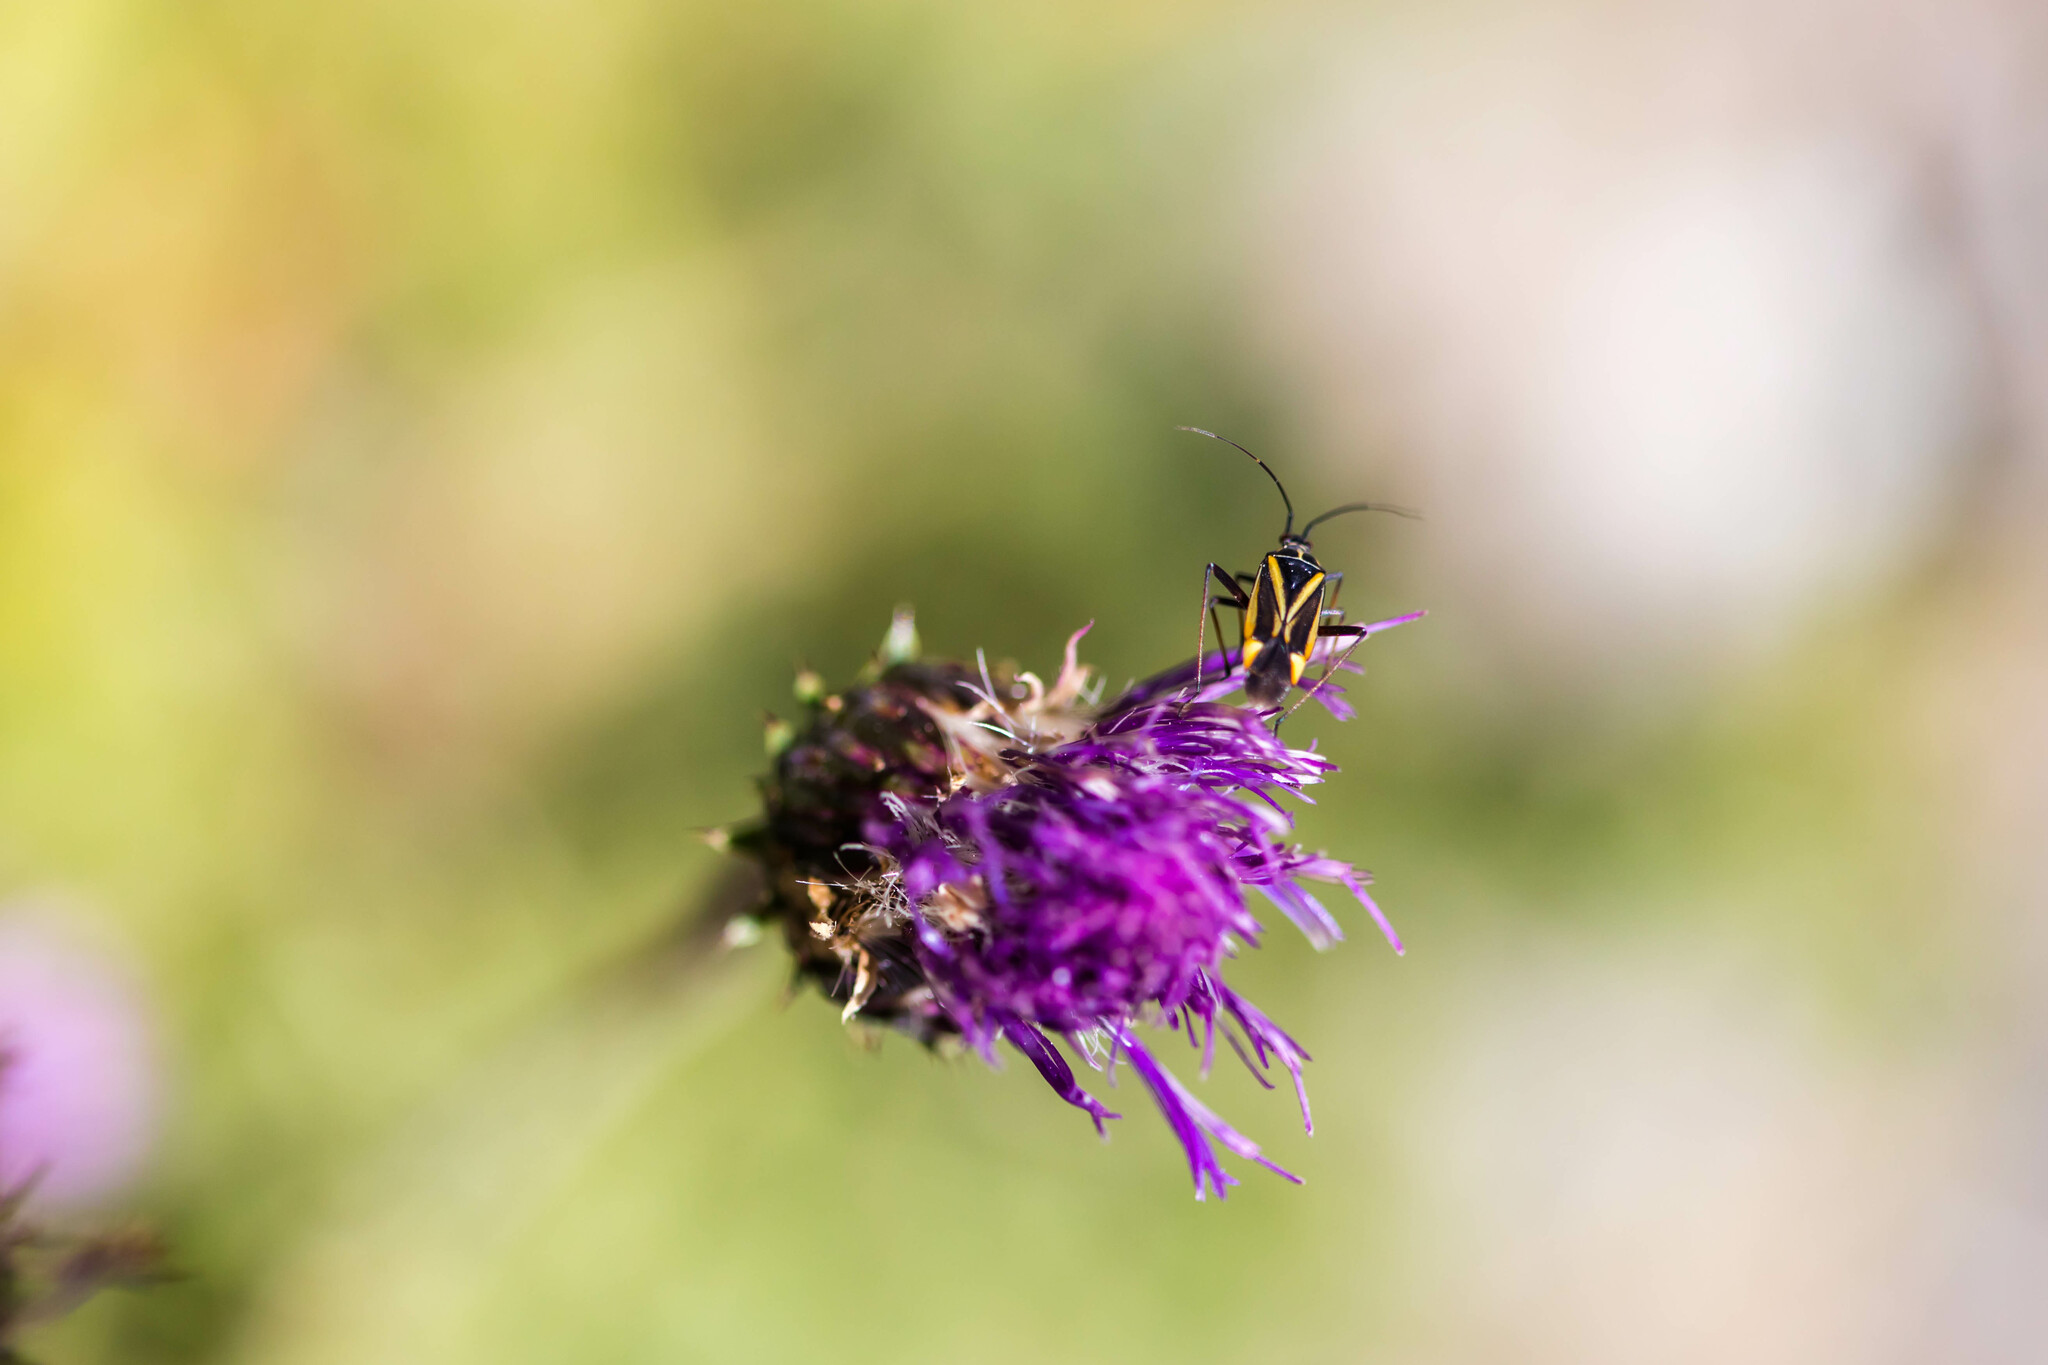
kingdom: Animalia
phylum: Arthropoda
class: Insecta
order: Hemiptera
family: Miridae
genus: Hadrodemus
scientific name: Hadrodemus m-flavum
